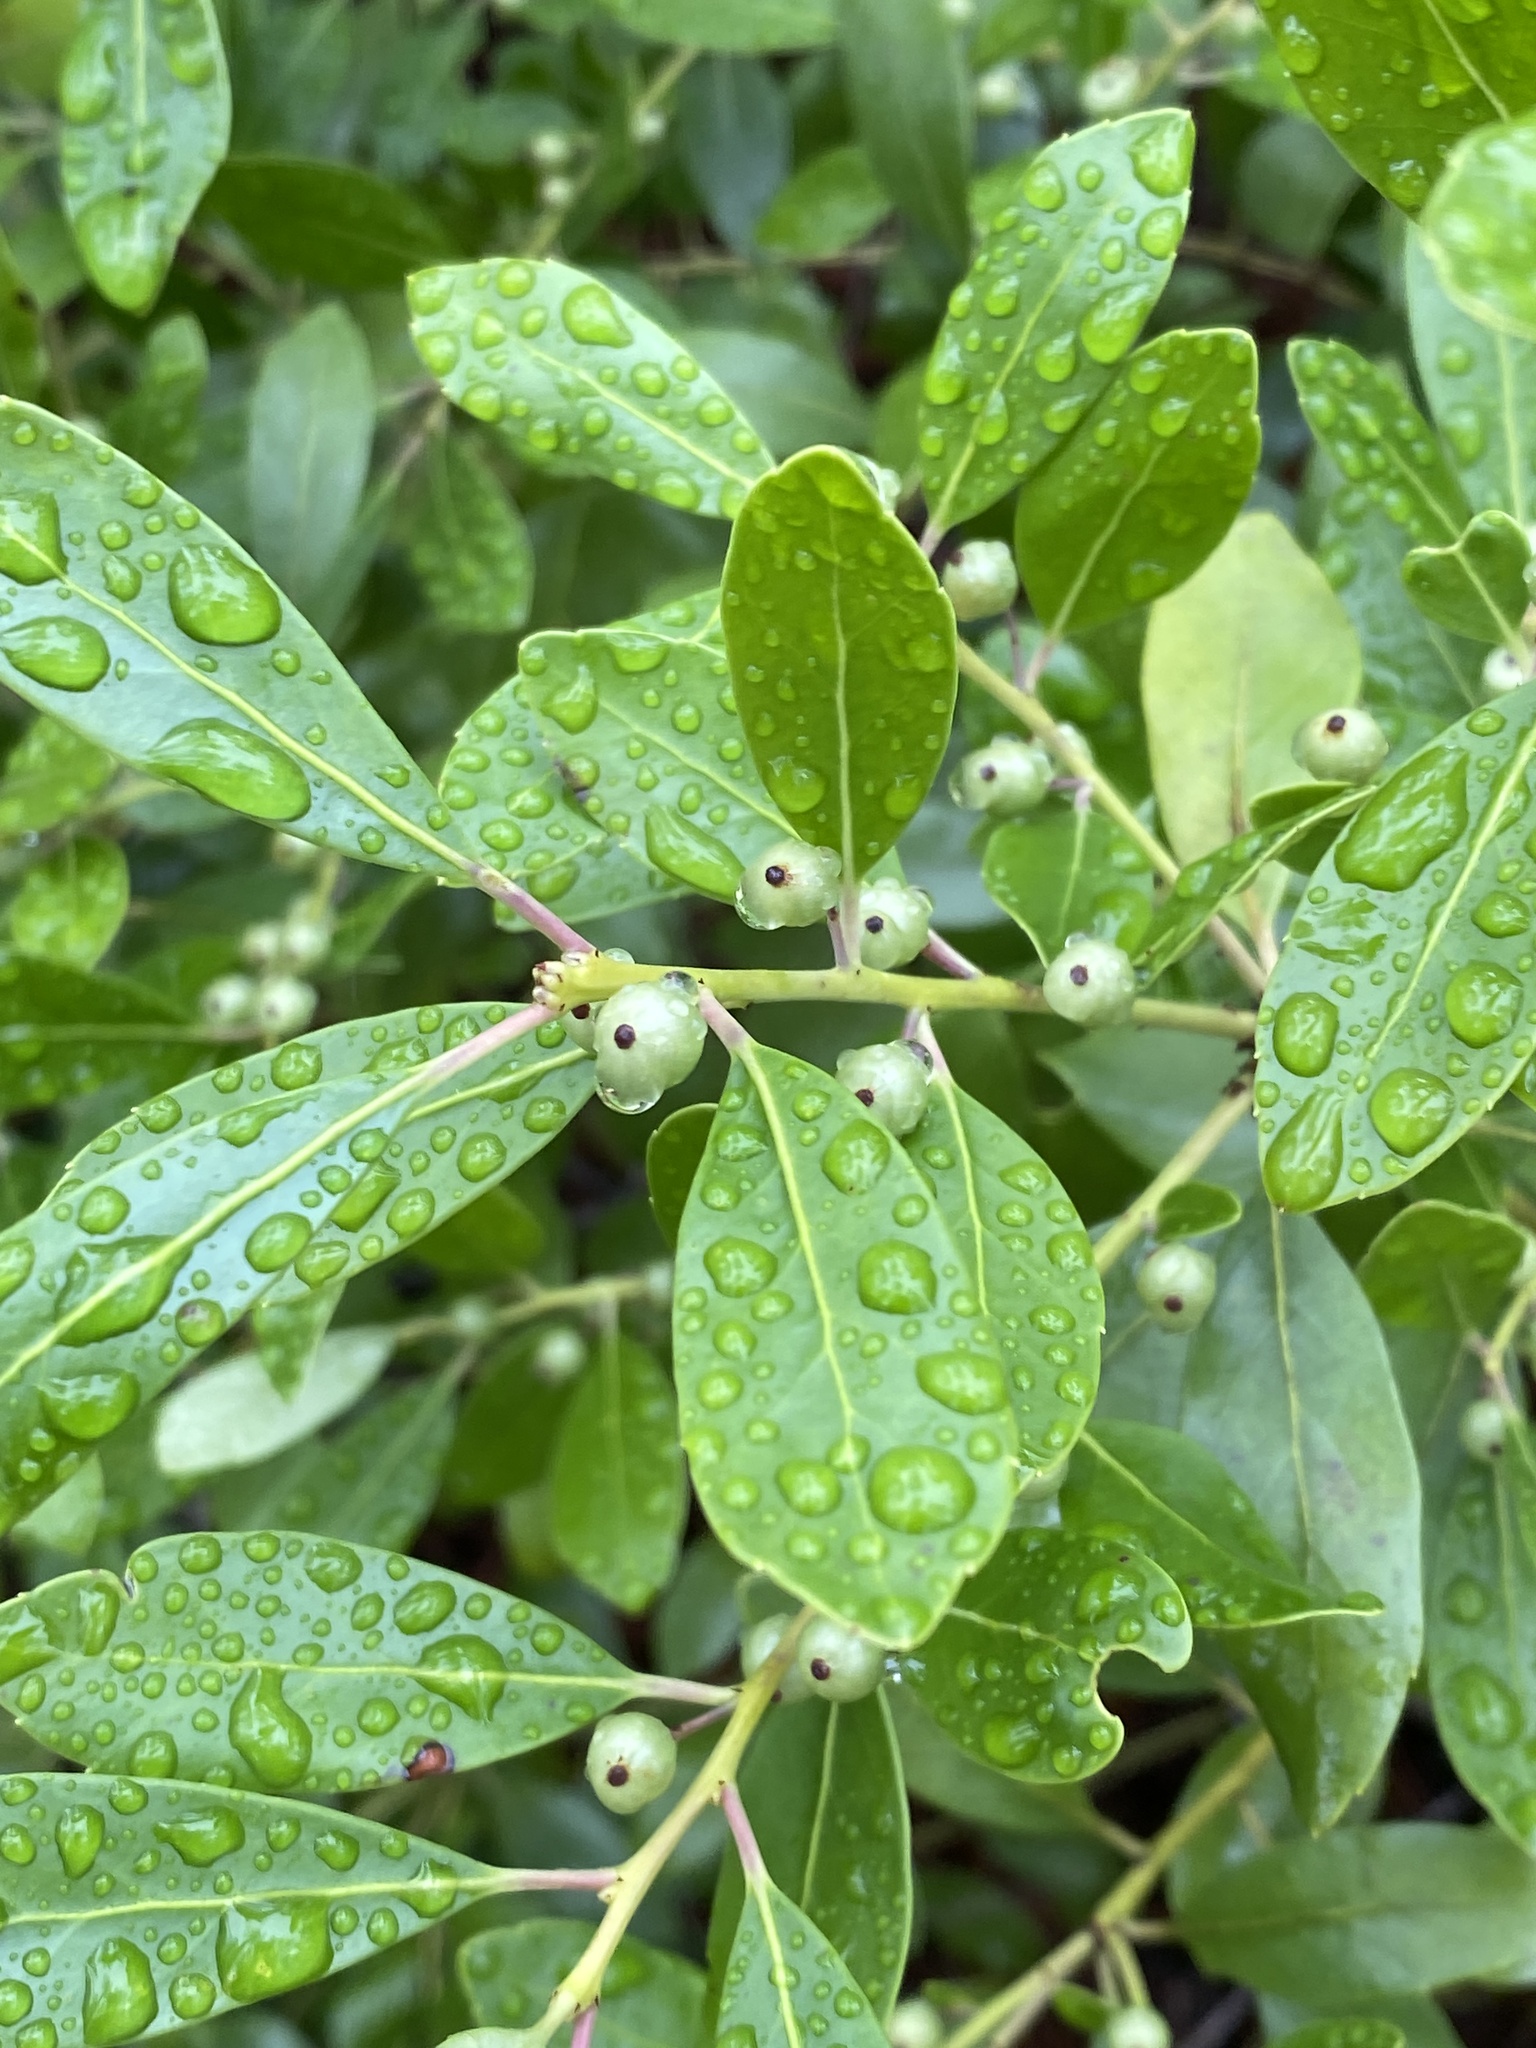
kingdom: Plantae
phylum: Tracheophyta
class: Magnoliopsida
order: Aquifoliales
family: Aquifoliaceae
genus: Ilex
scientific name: Ilex glabra
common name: Bitter gallberry
